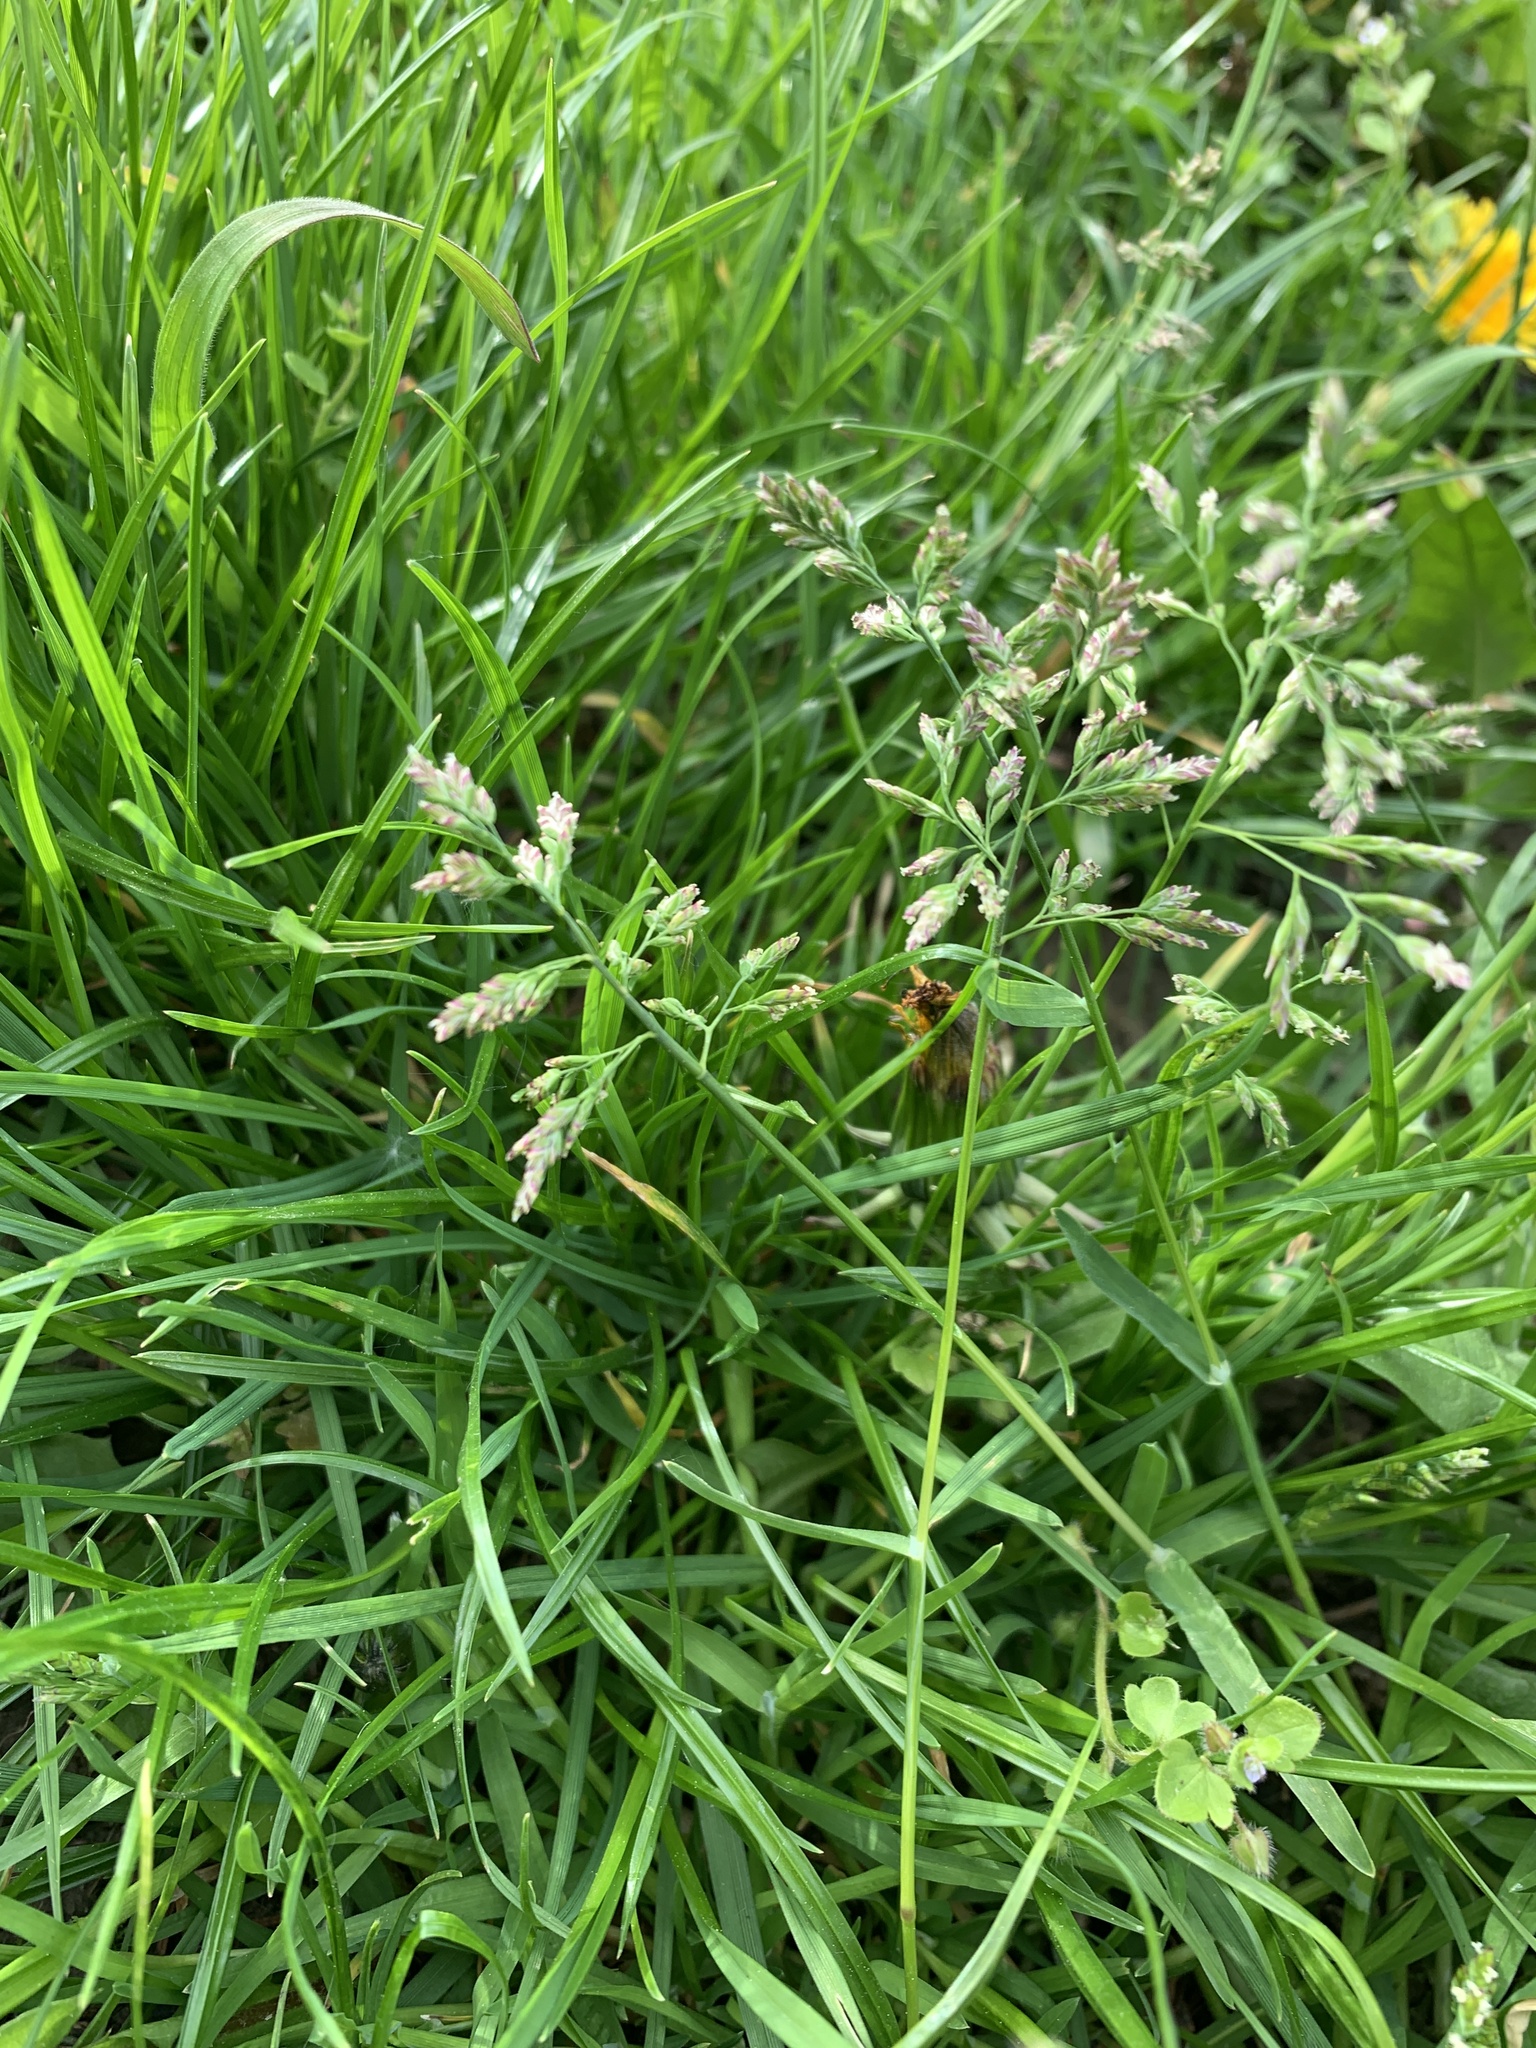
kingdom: Plantae
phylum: Tracheophyta
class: Liliopsida
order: Poales
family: Poaceae
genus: Poa
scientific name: Poa annua
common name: Annual bluegrass
